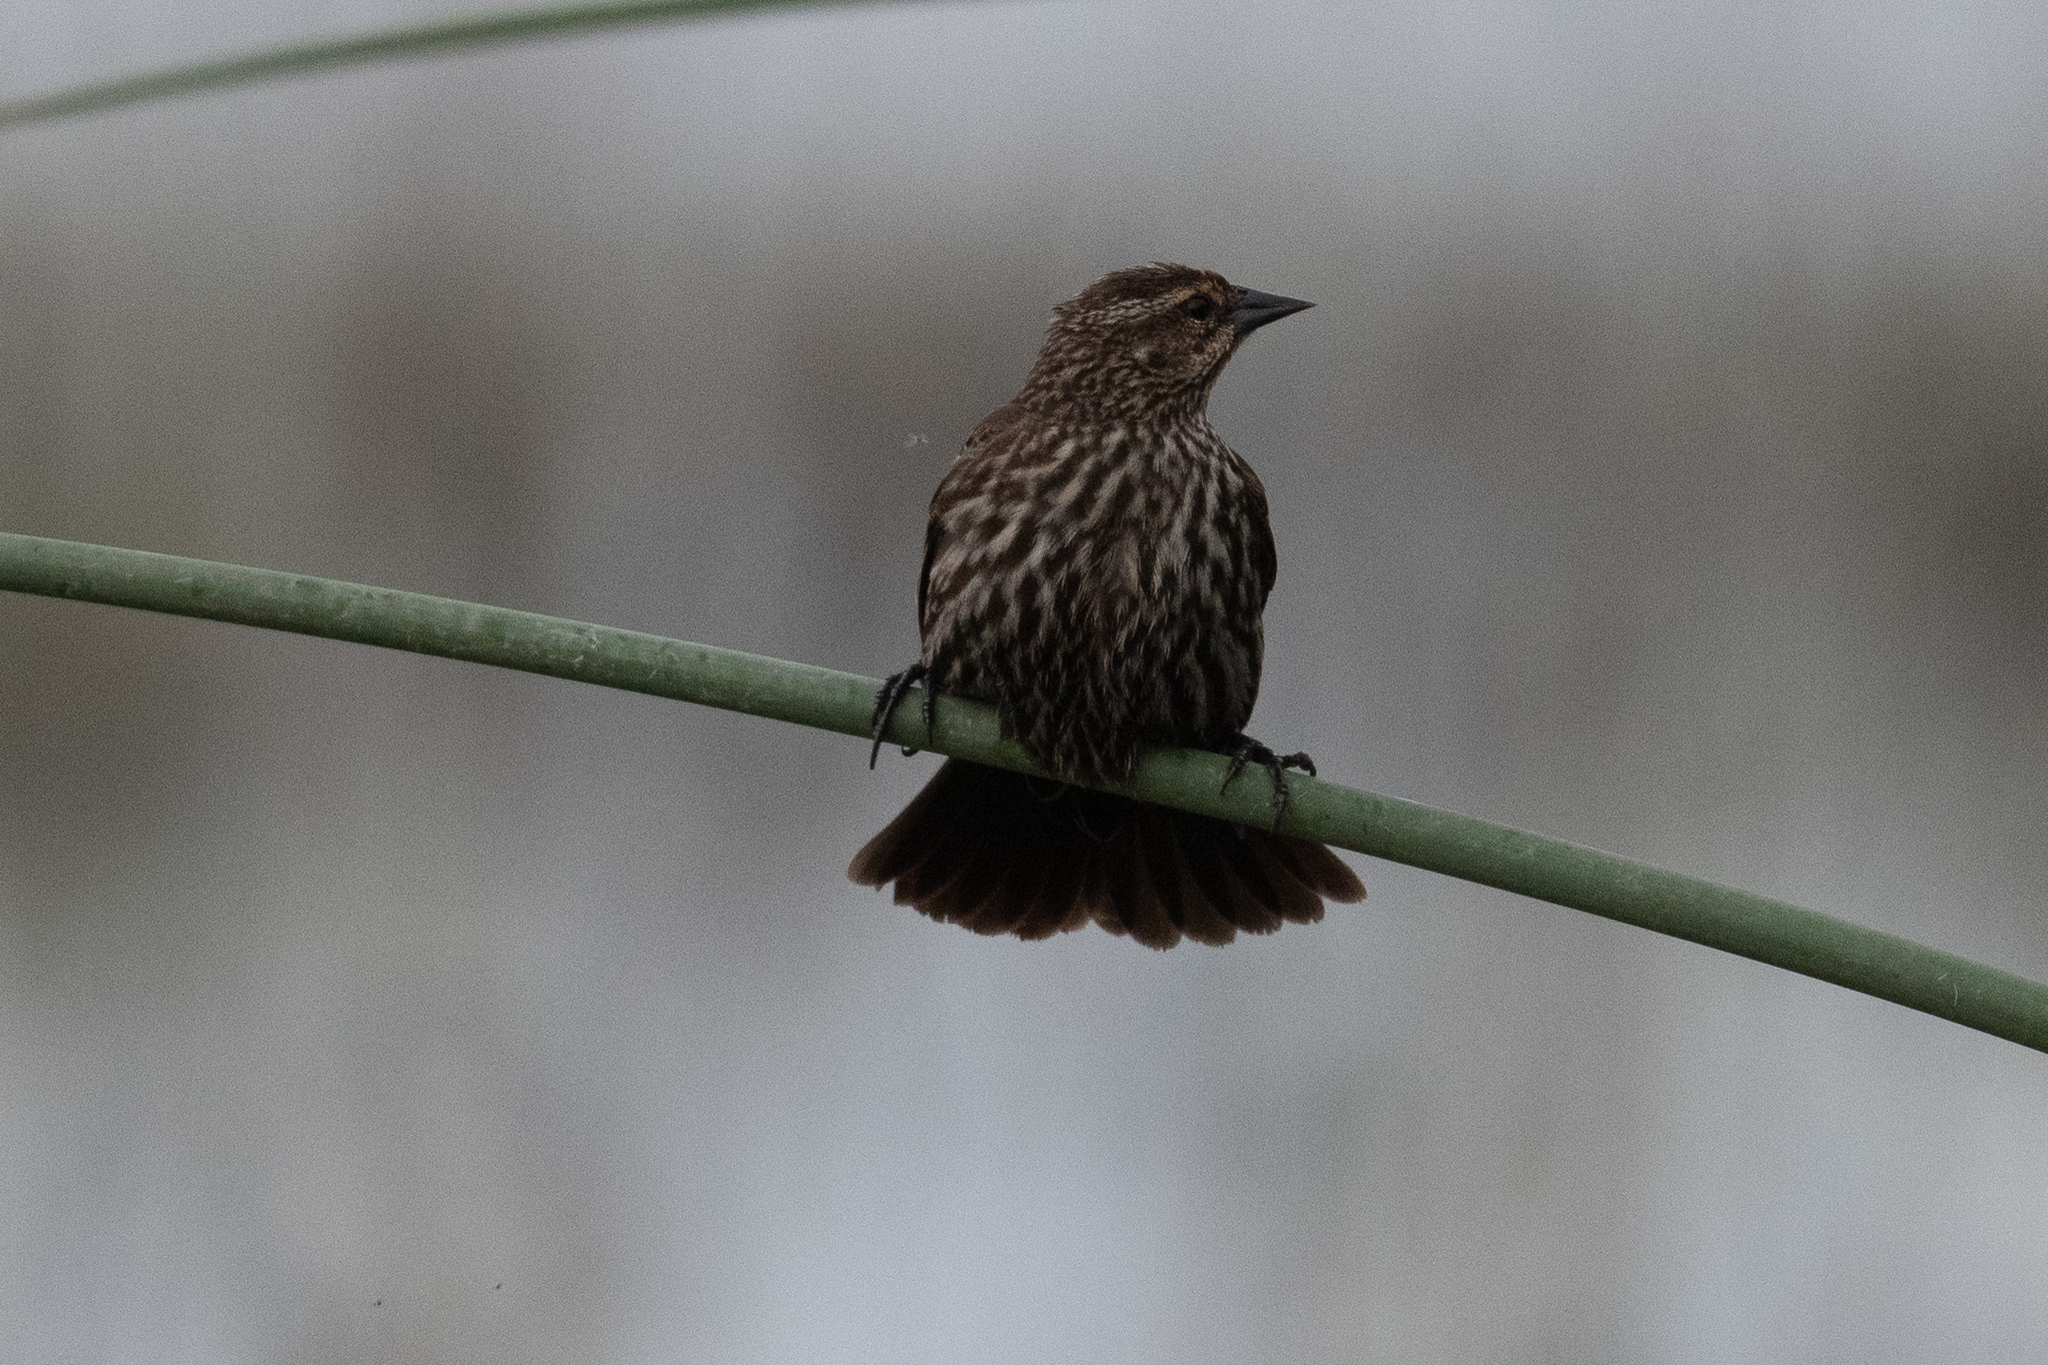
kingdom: Animalia
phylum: Chordata
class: Aves
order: Passeriformes
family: Icteridae
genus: Agelaius
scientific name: Agelaius phoeniceus
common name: Red-winged blackbird
